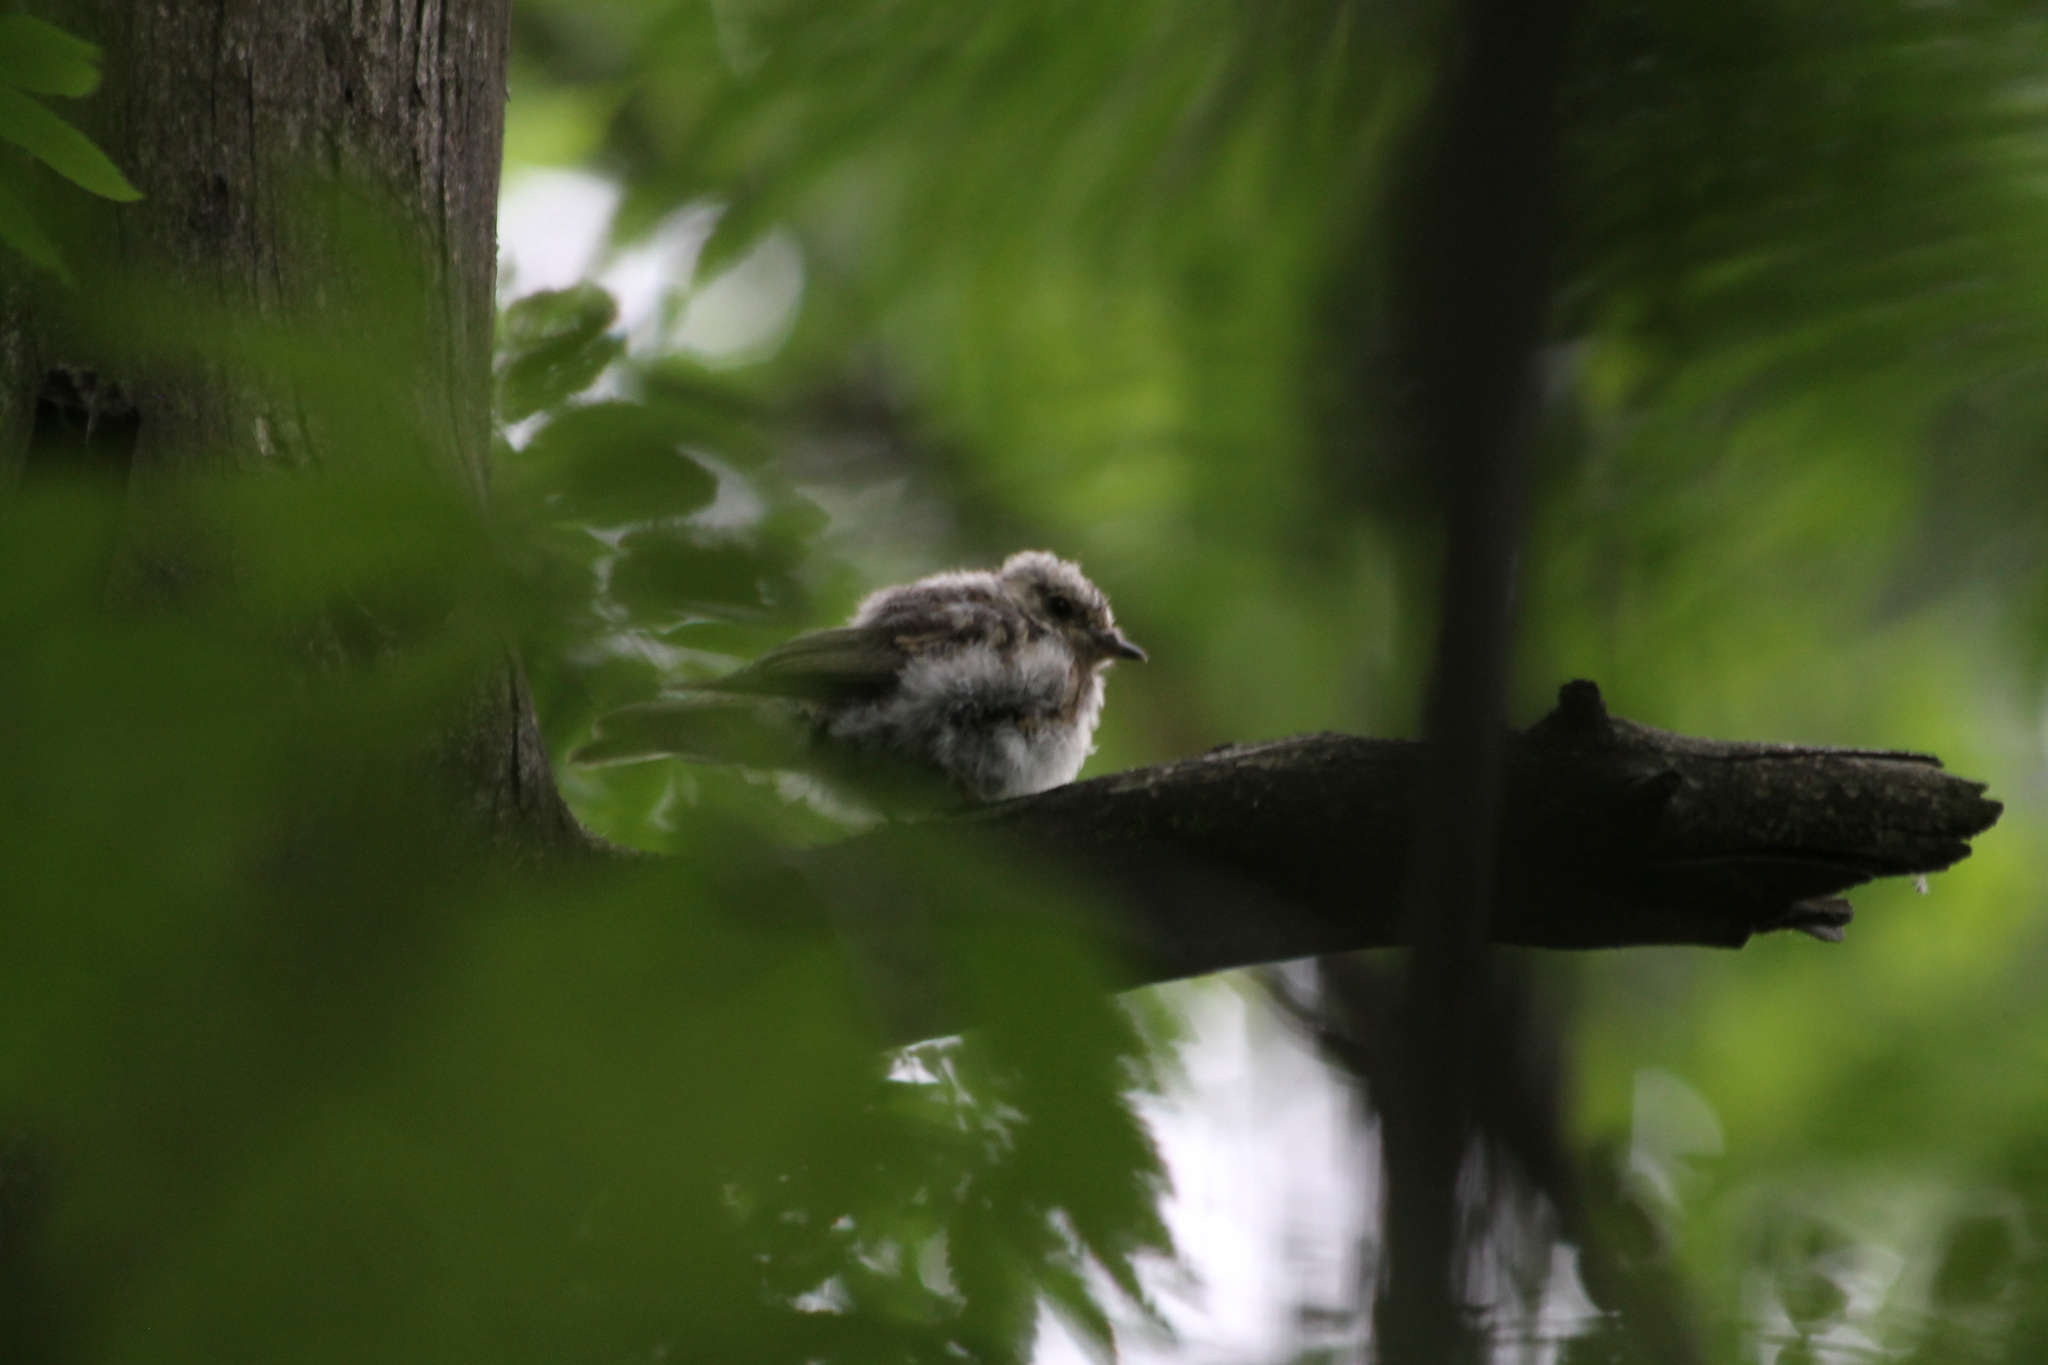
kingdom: Animalia
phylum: Chordata
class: Aves
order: Passeriformes
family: Muscicapidae
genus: Muscicapa
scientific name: Muscicapa striata
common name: Spotted flycatcher
